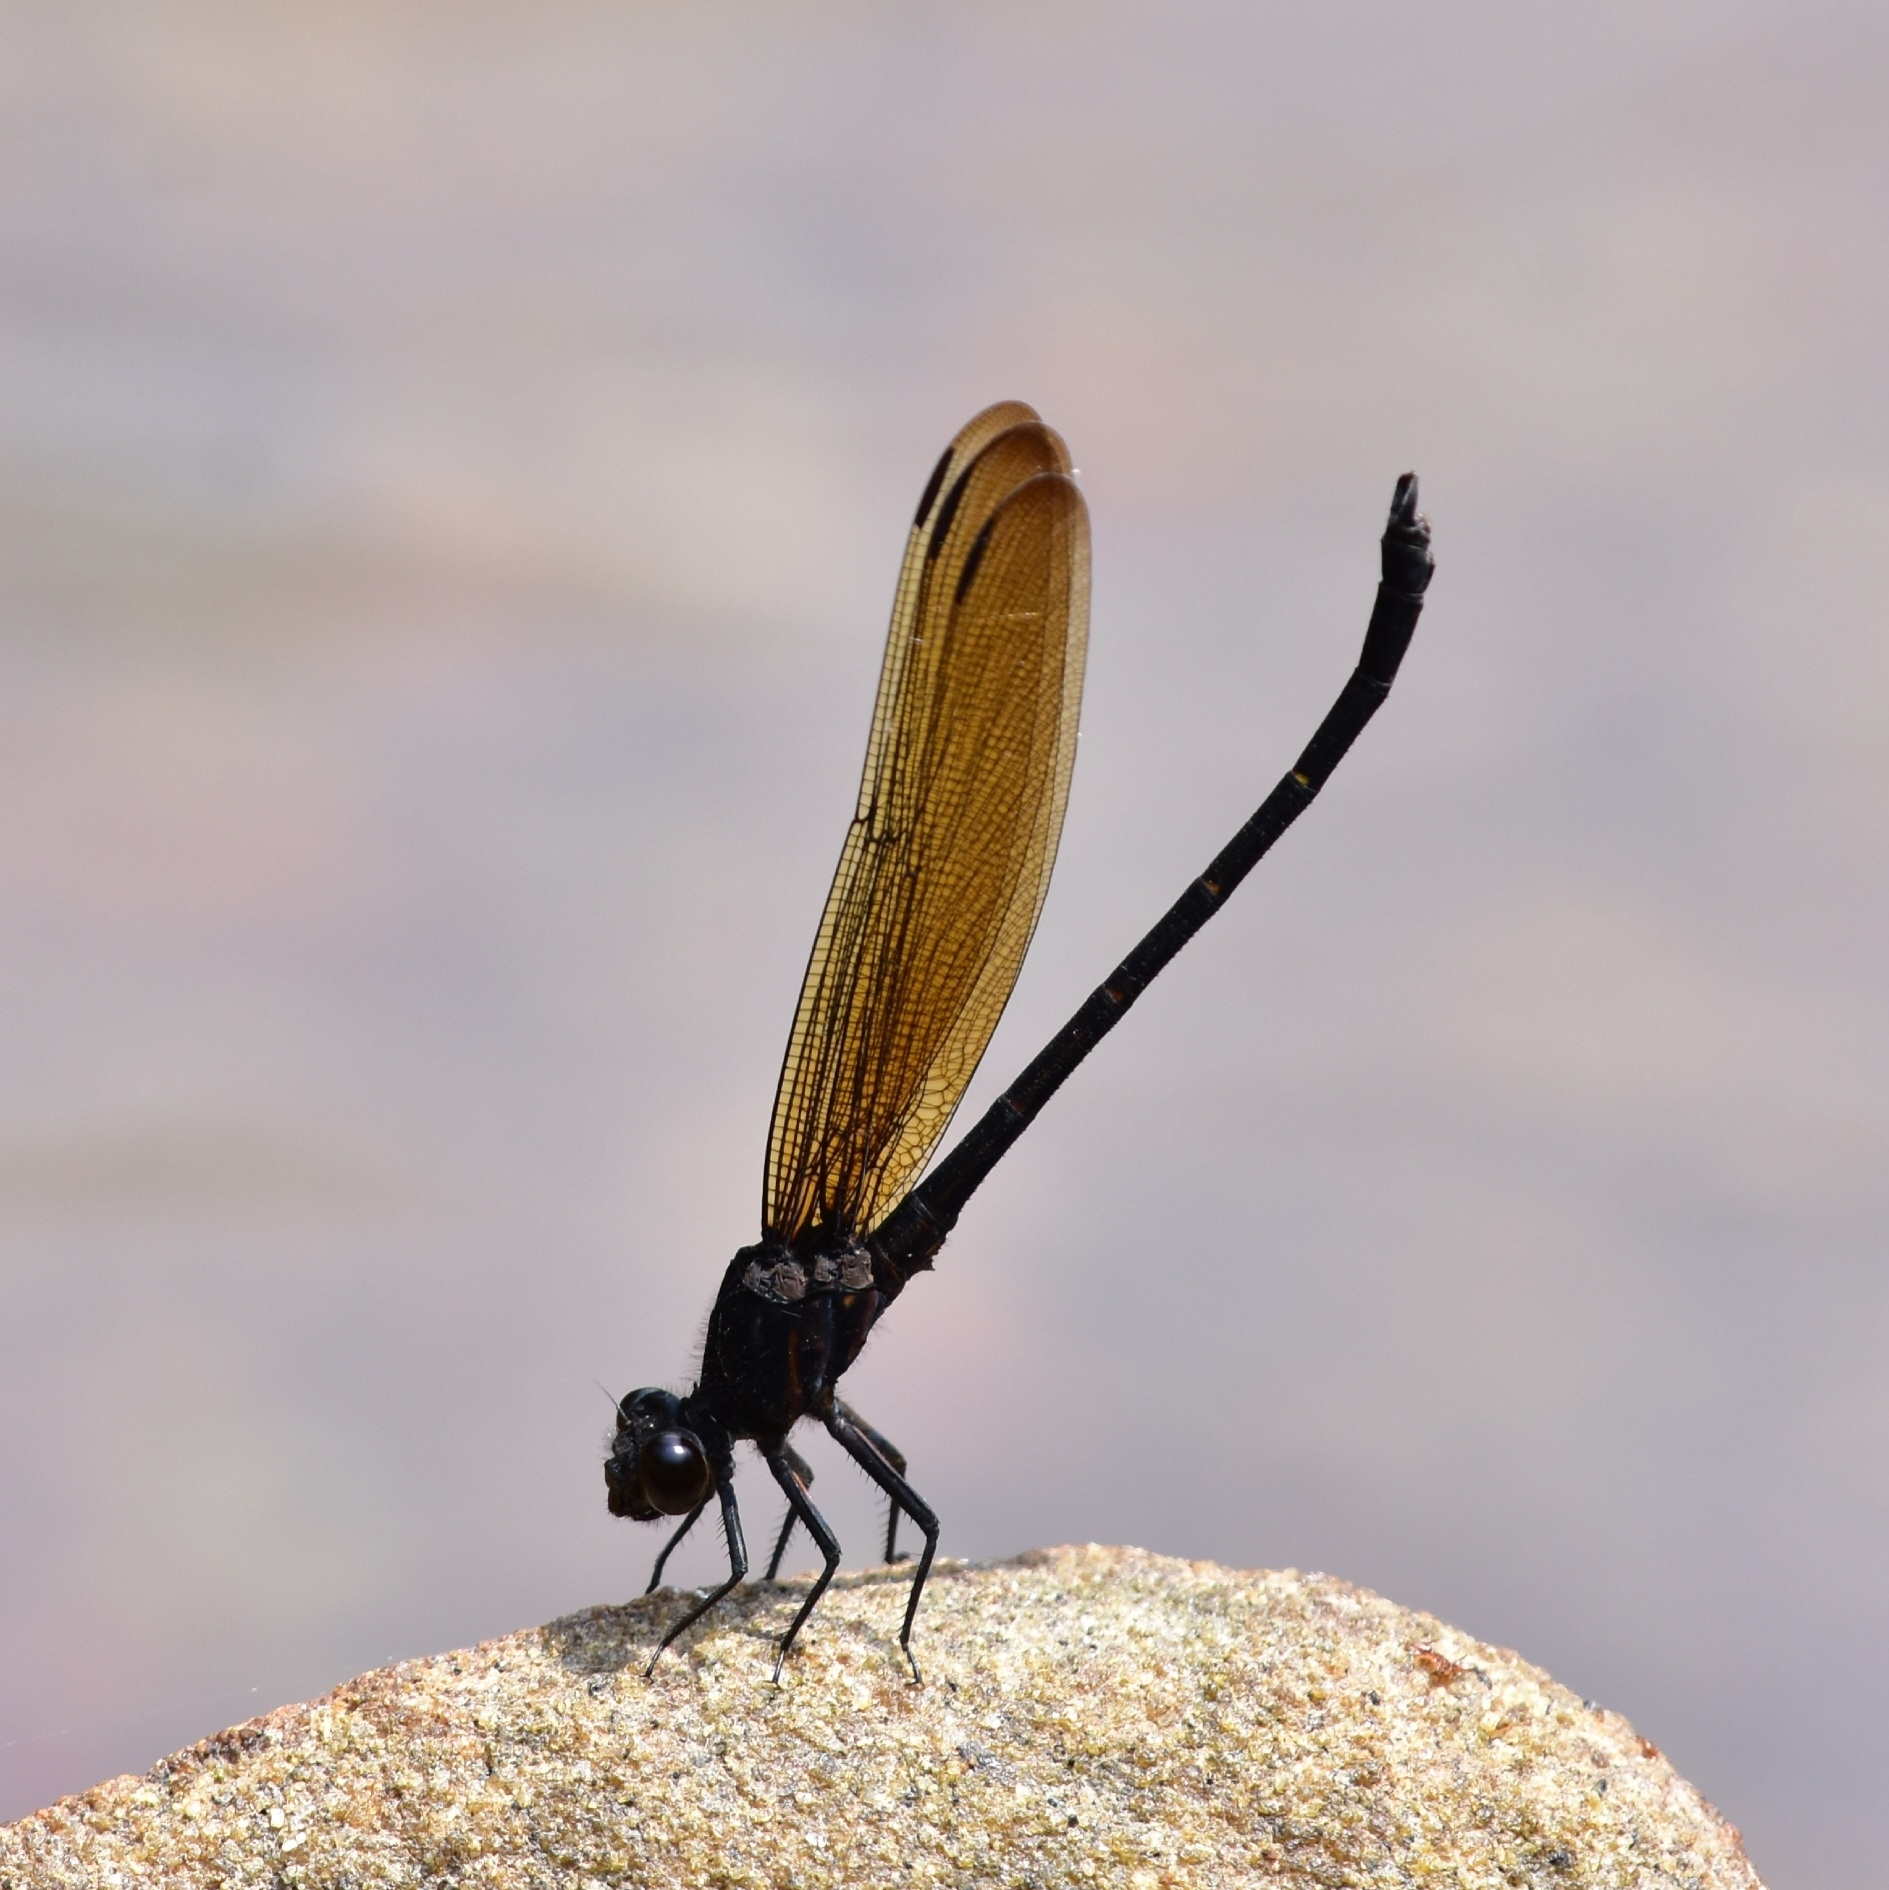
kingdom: Animalia
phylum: Arthropoda
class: Insecta
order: Odonata
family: Euphaeidae
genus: Dysphaea
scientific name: Dysphaea ethela
